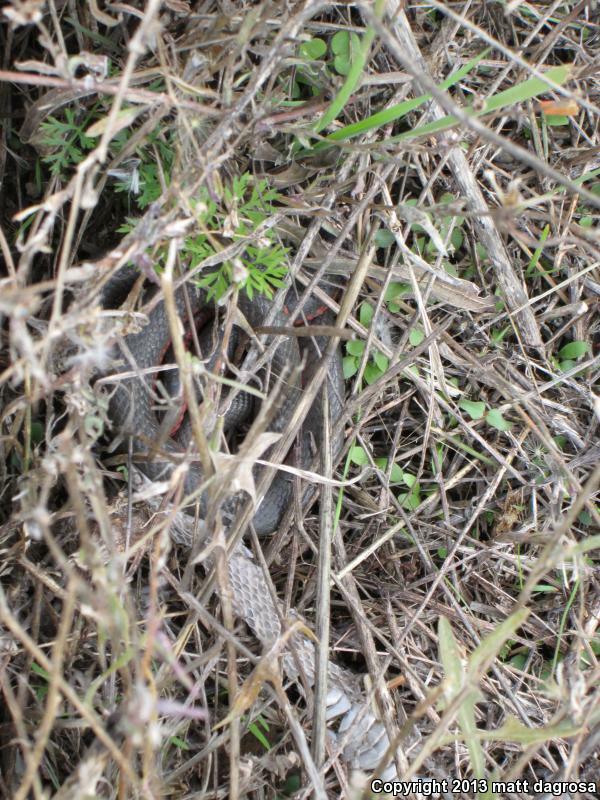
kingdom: Animalia
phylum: Chordata
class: Squamata
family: Colubridae
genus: Diadophis
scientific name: Diadophis punctatus
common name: Ringneck snake
